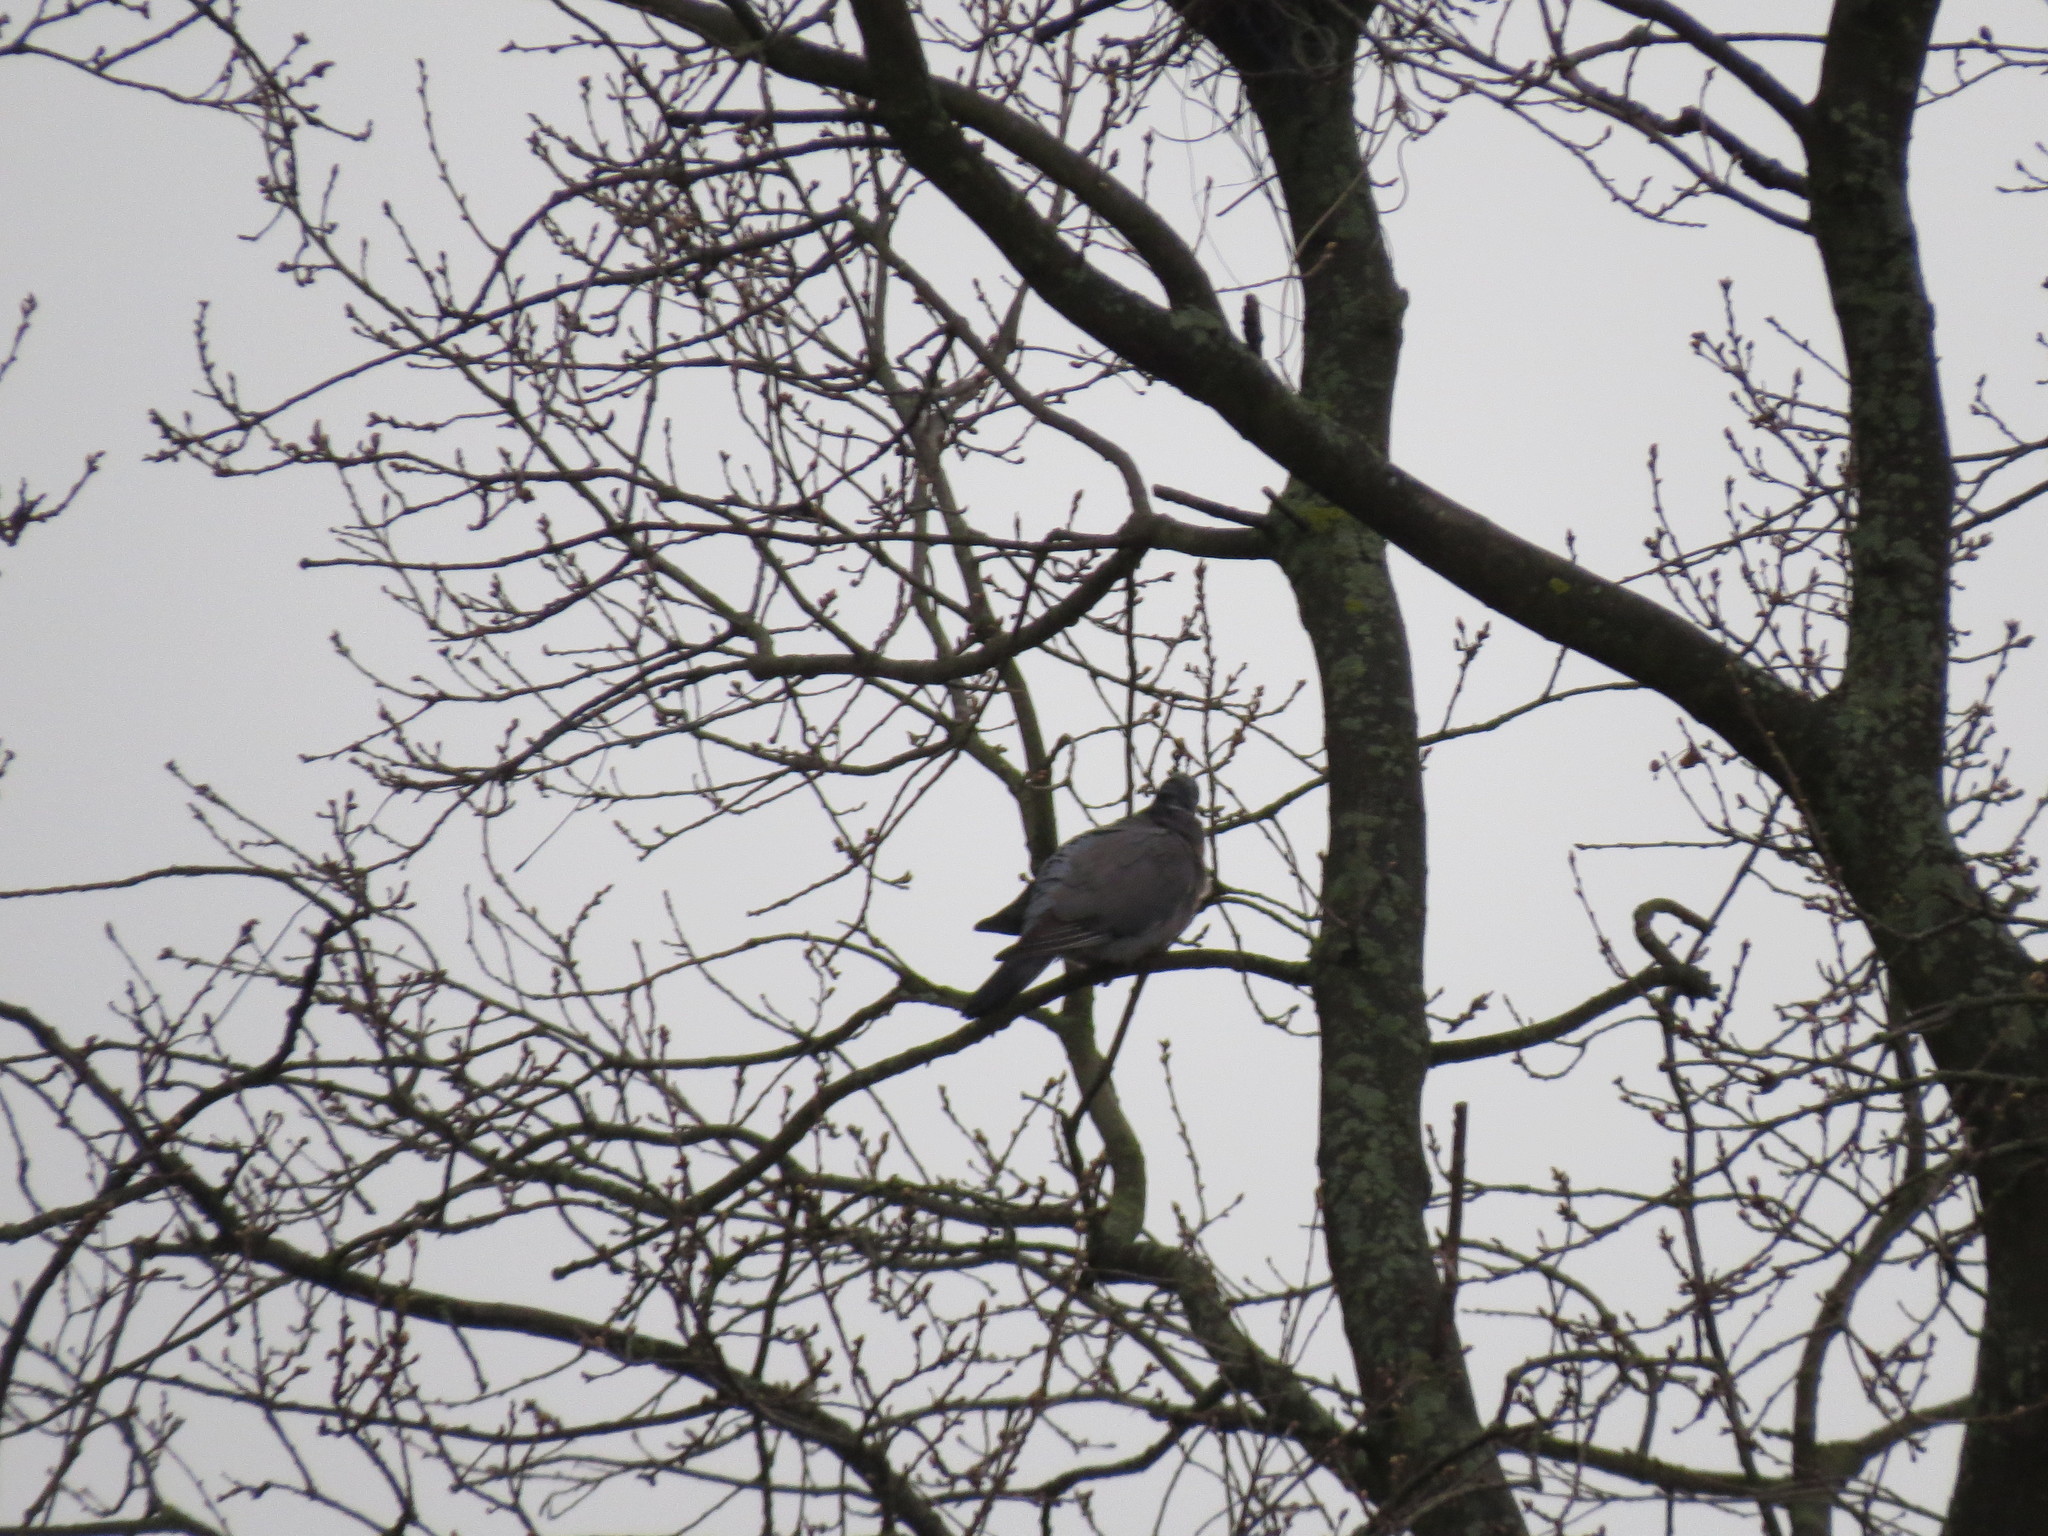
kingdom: Animalia
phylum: Chordata
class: Aves
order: Columbiformes
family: Columbidae
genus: Columba
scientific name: Columba palumbus
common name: Common wood pigeon
